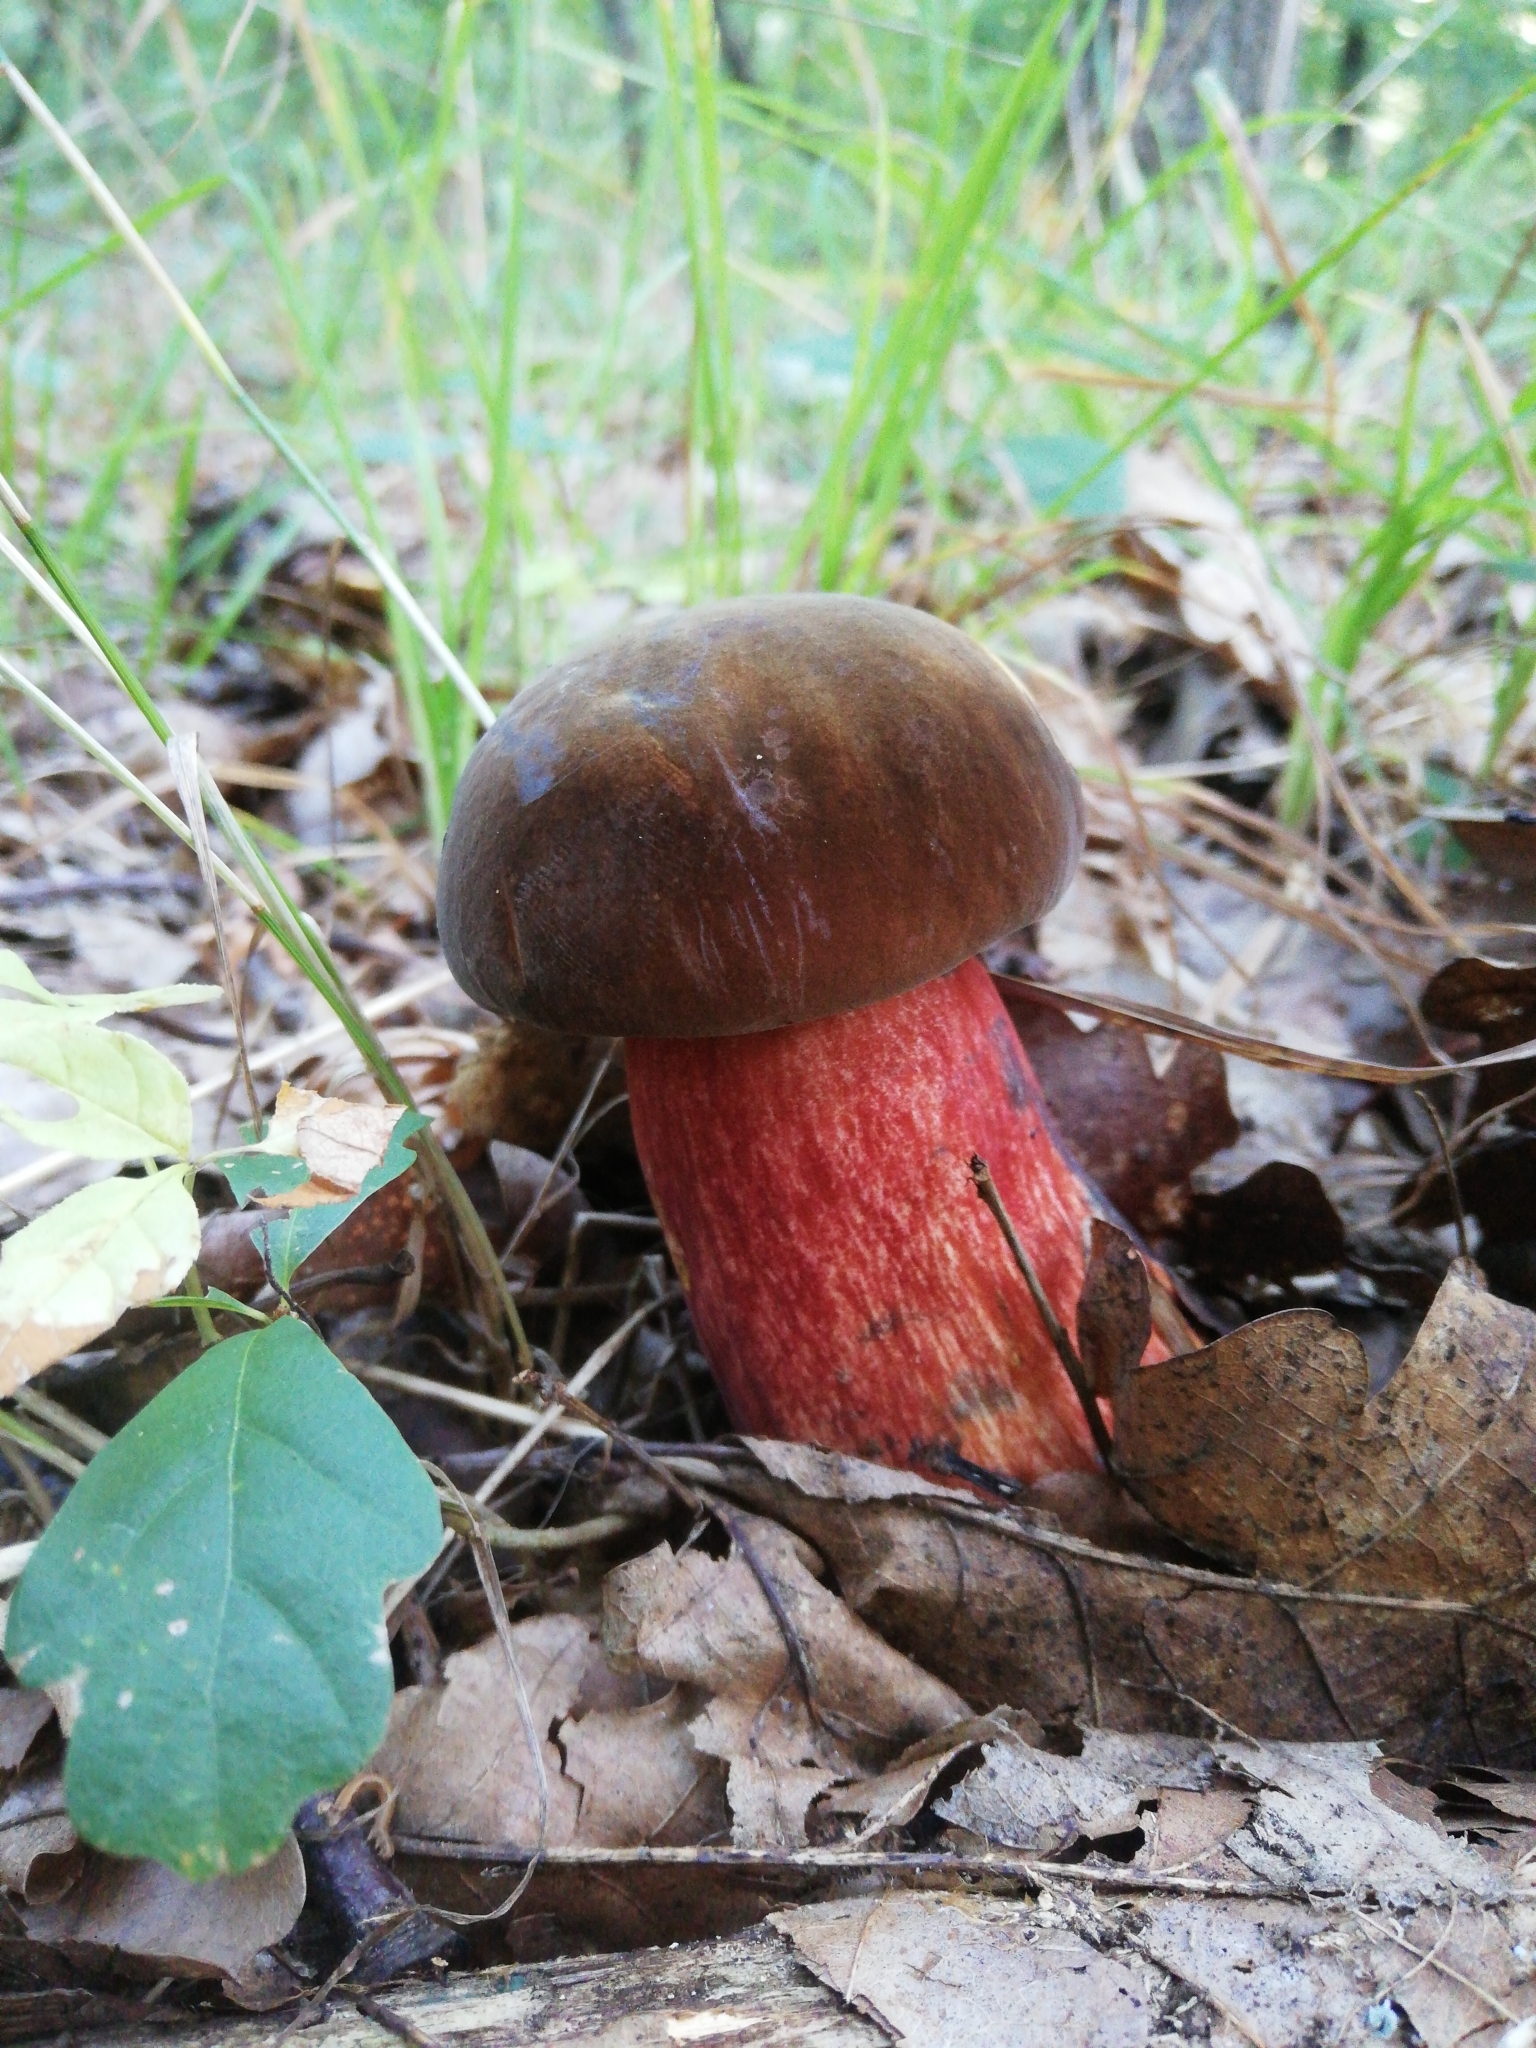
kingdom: Fungi
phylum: Basidiomycota
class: Agaricomycetes
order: Boletales
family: Boletaceae
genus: Neoboletus
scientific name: Neoboletus luridiformis
